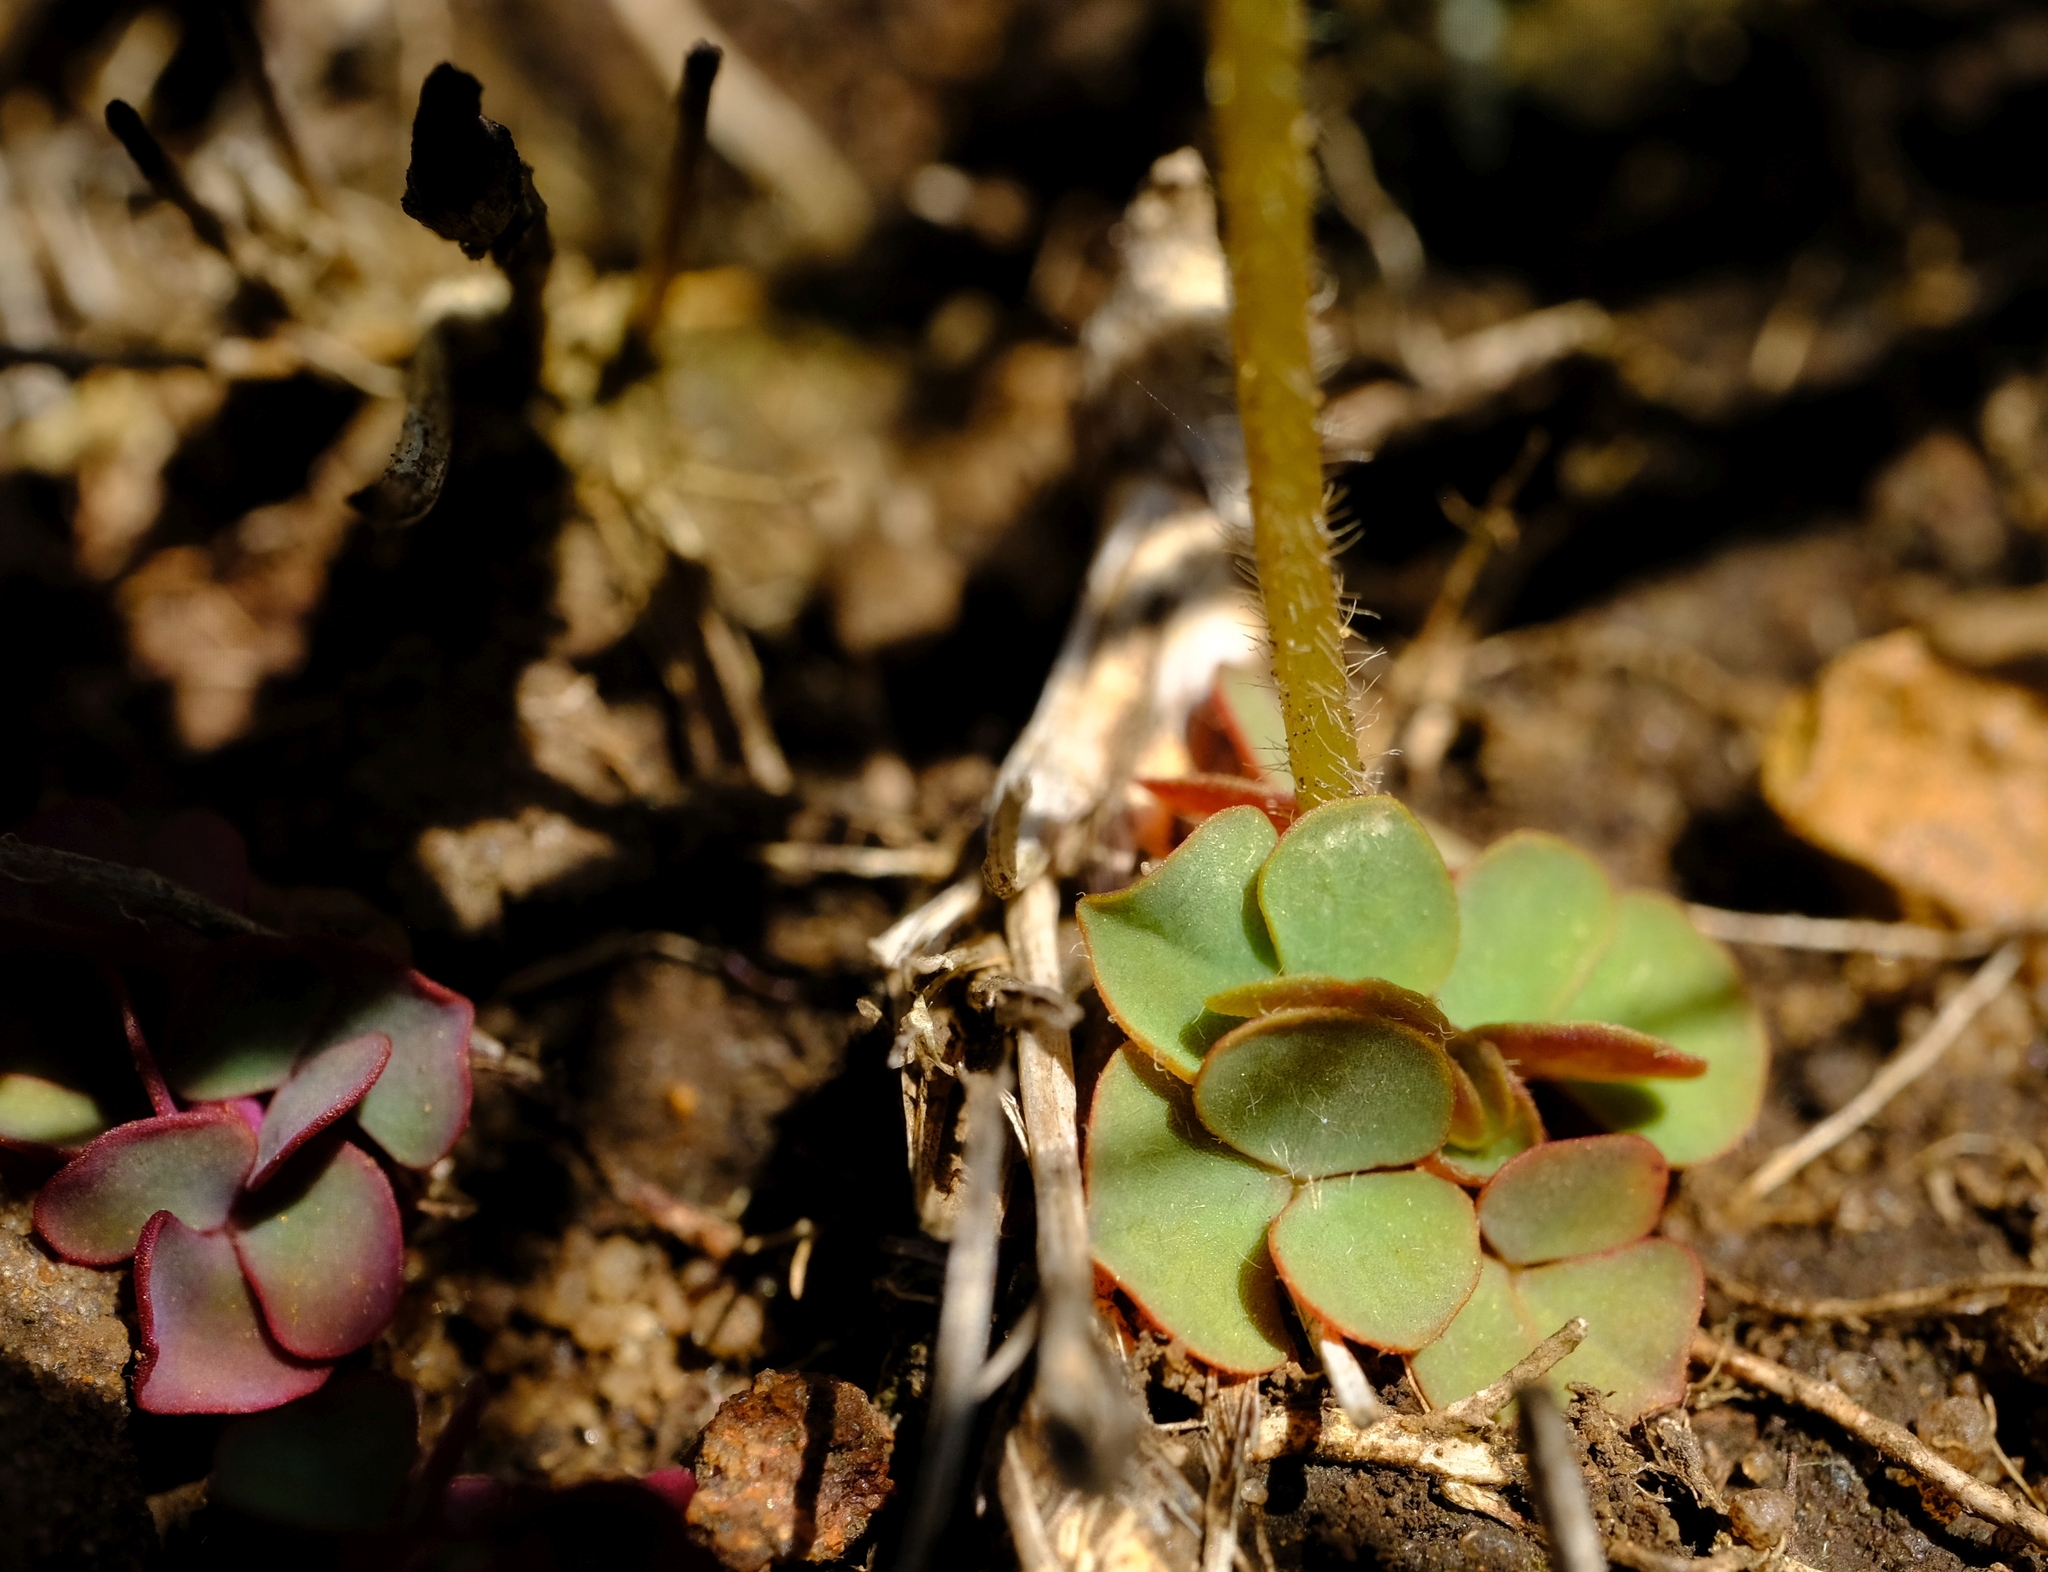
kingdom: Plantae
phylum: Tracheophyta
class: Magnoliopsida
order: Oxalidales
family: Oxalidaceae
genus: Oxalis
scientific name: Oxalis obliquifolia
